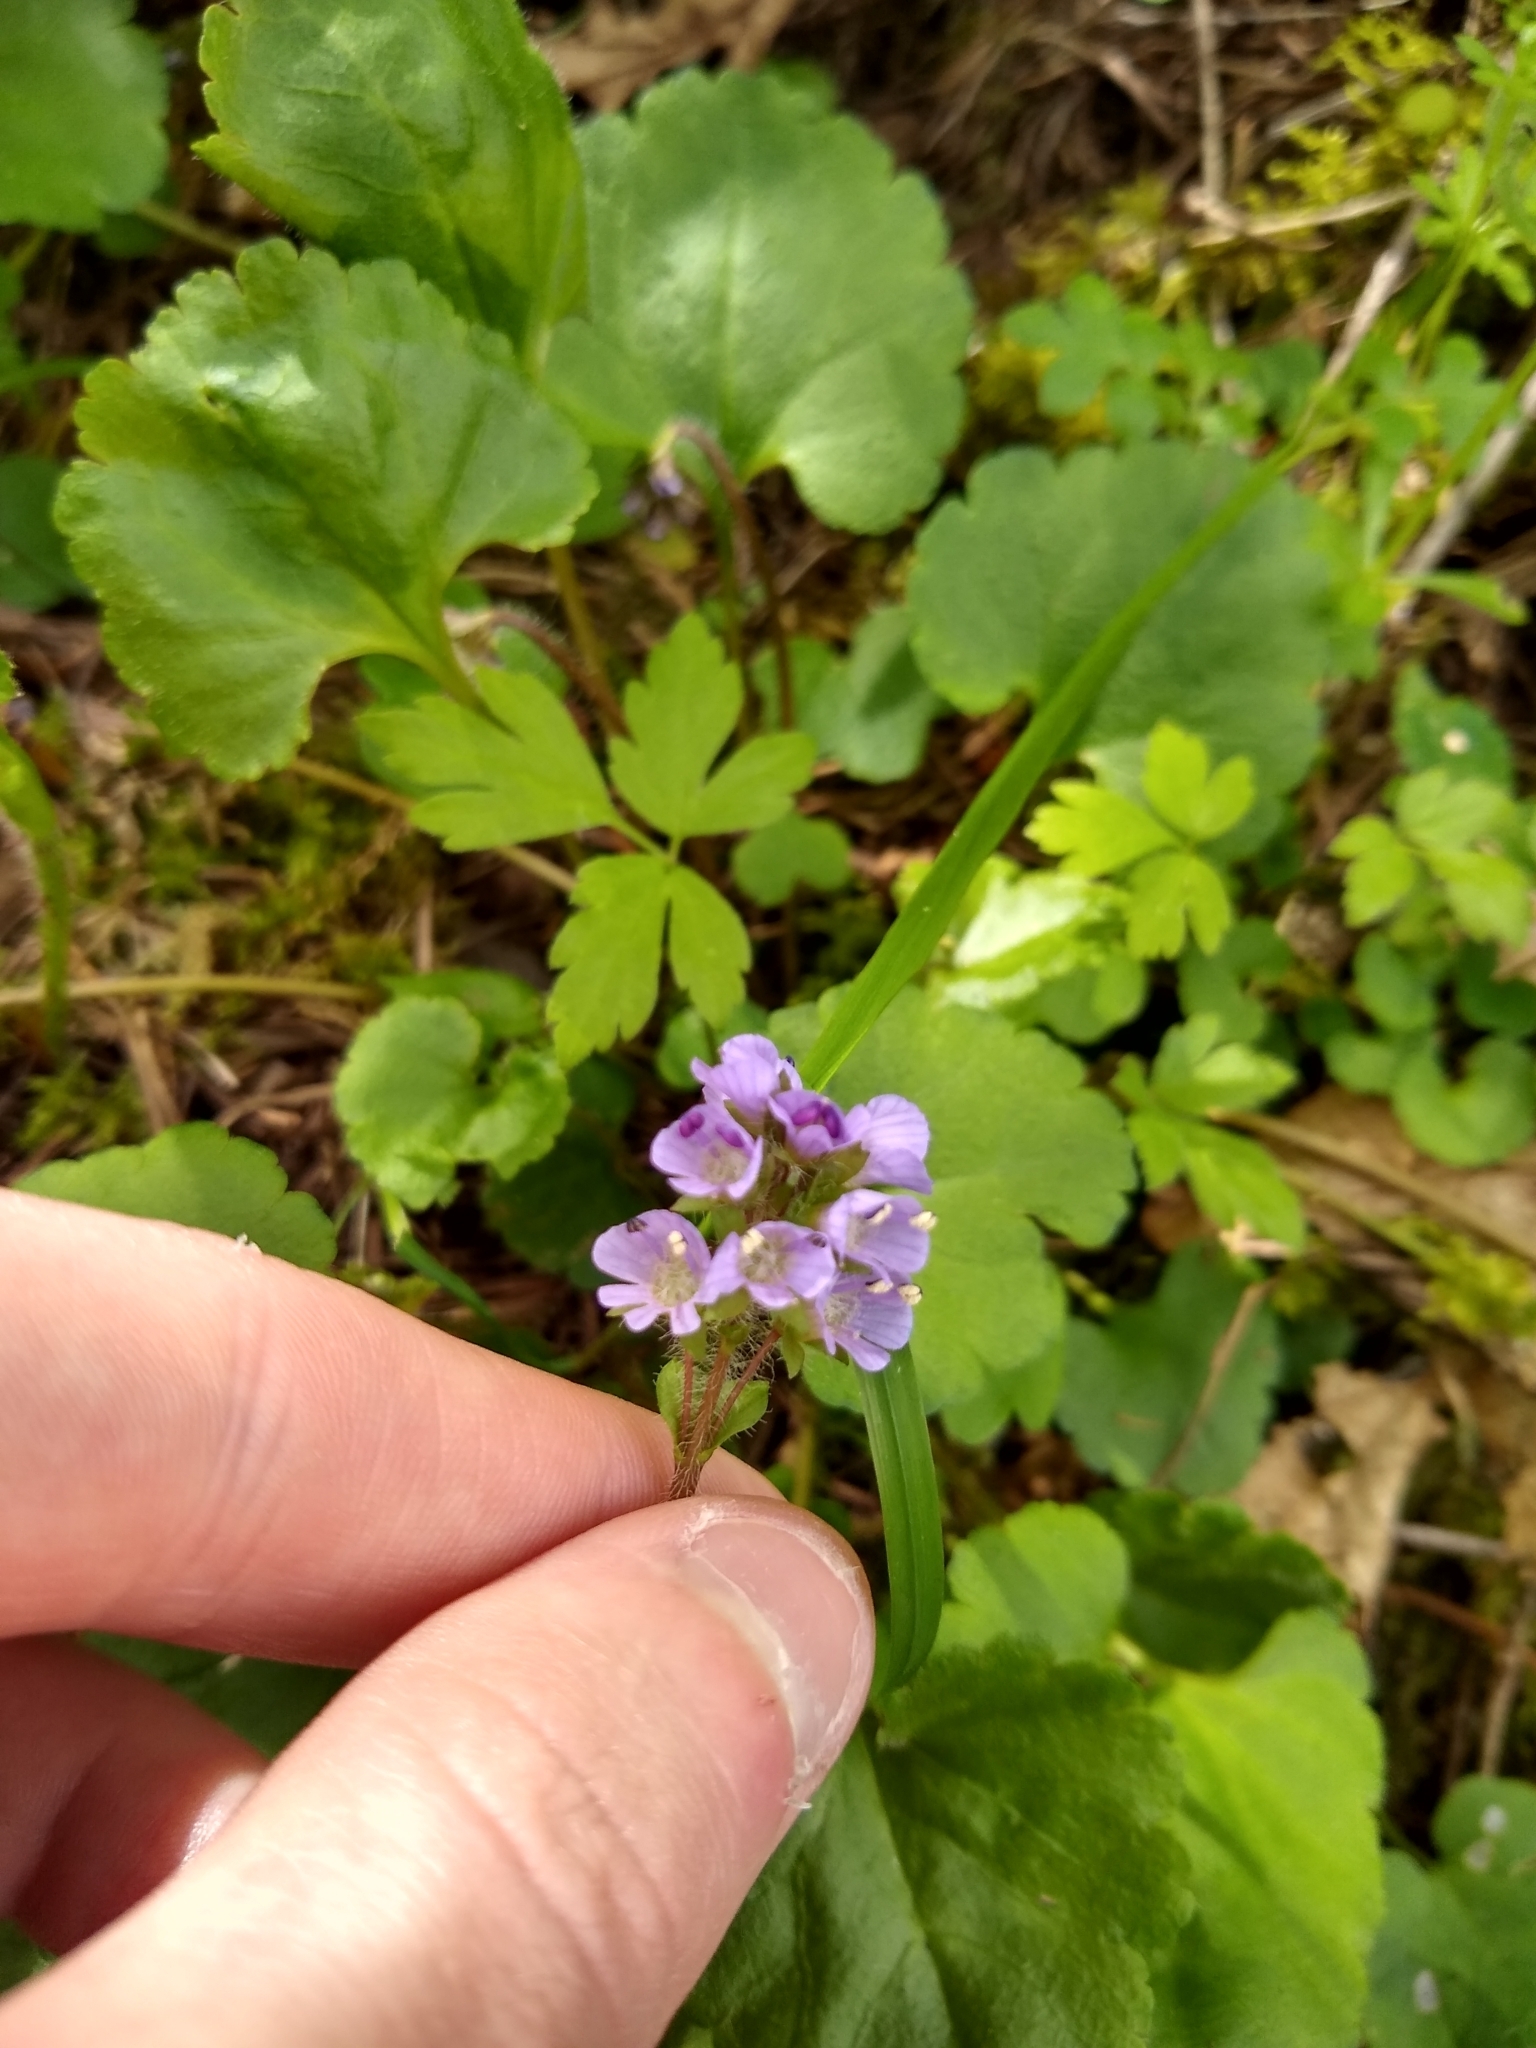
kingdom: Plantae
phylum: Tracheophyta
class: Magnoliopsida
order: Lamiales
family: Plantaginaceae
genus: Synthyris
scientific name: Synthyris reniformis
